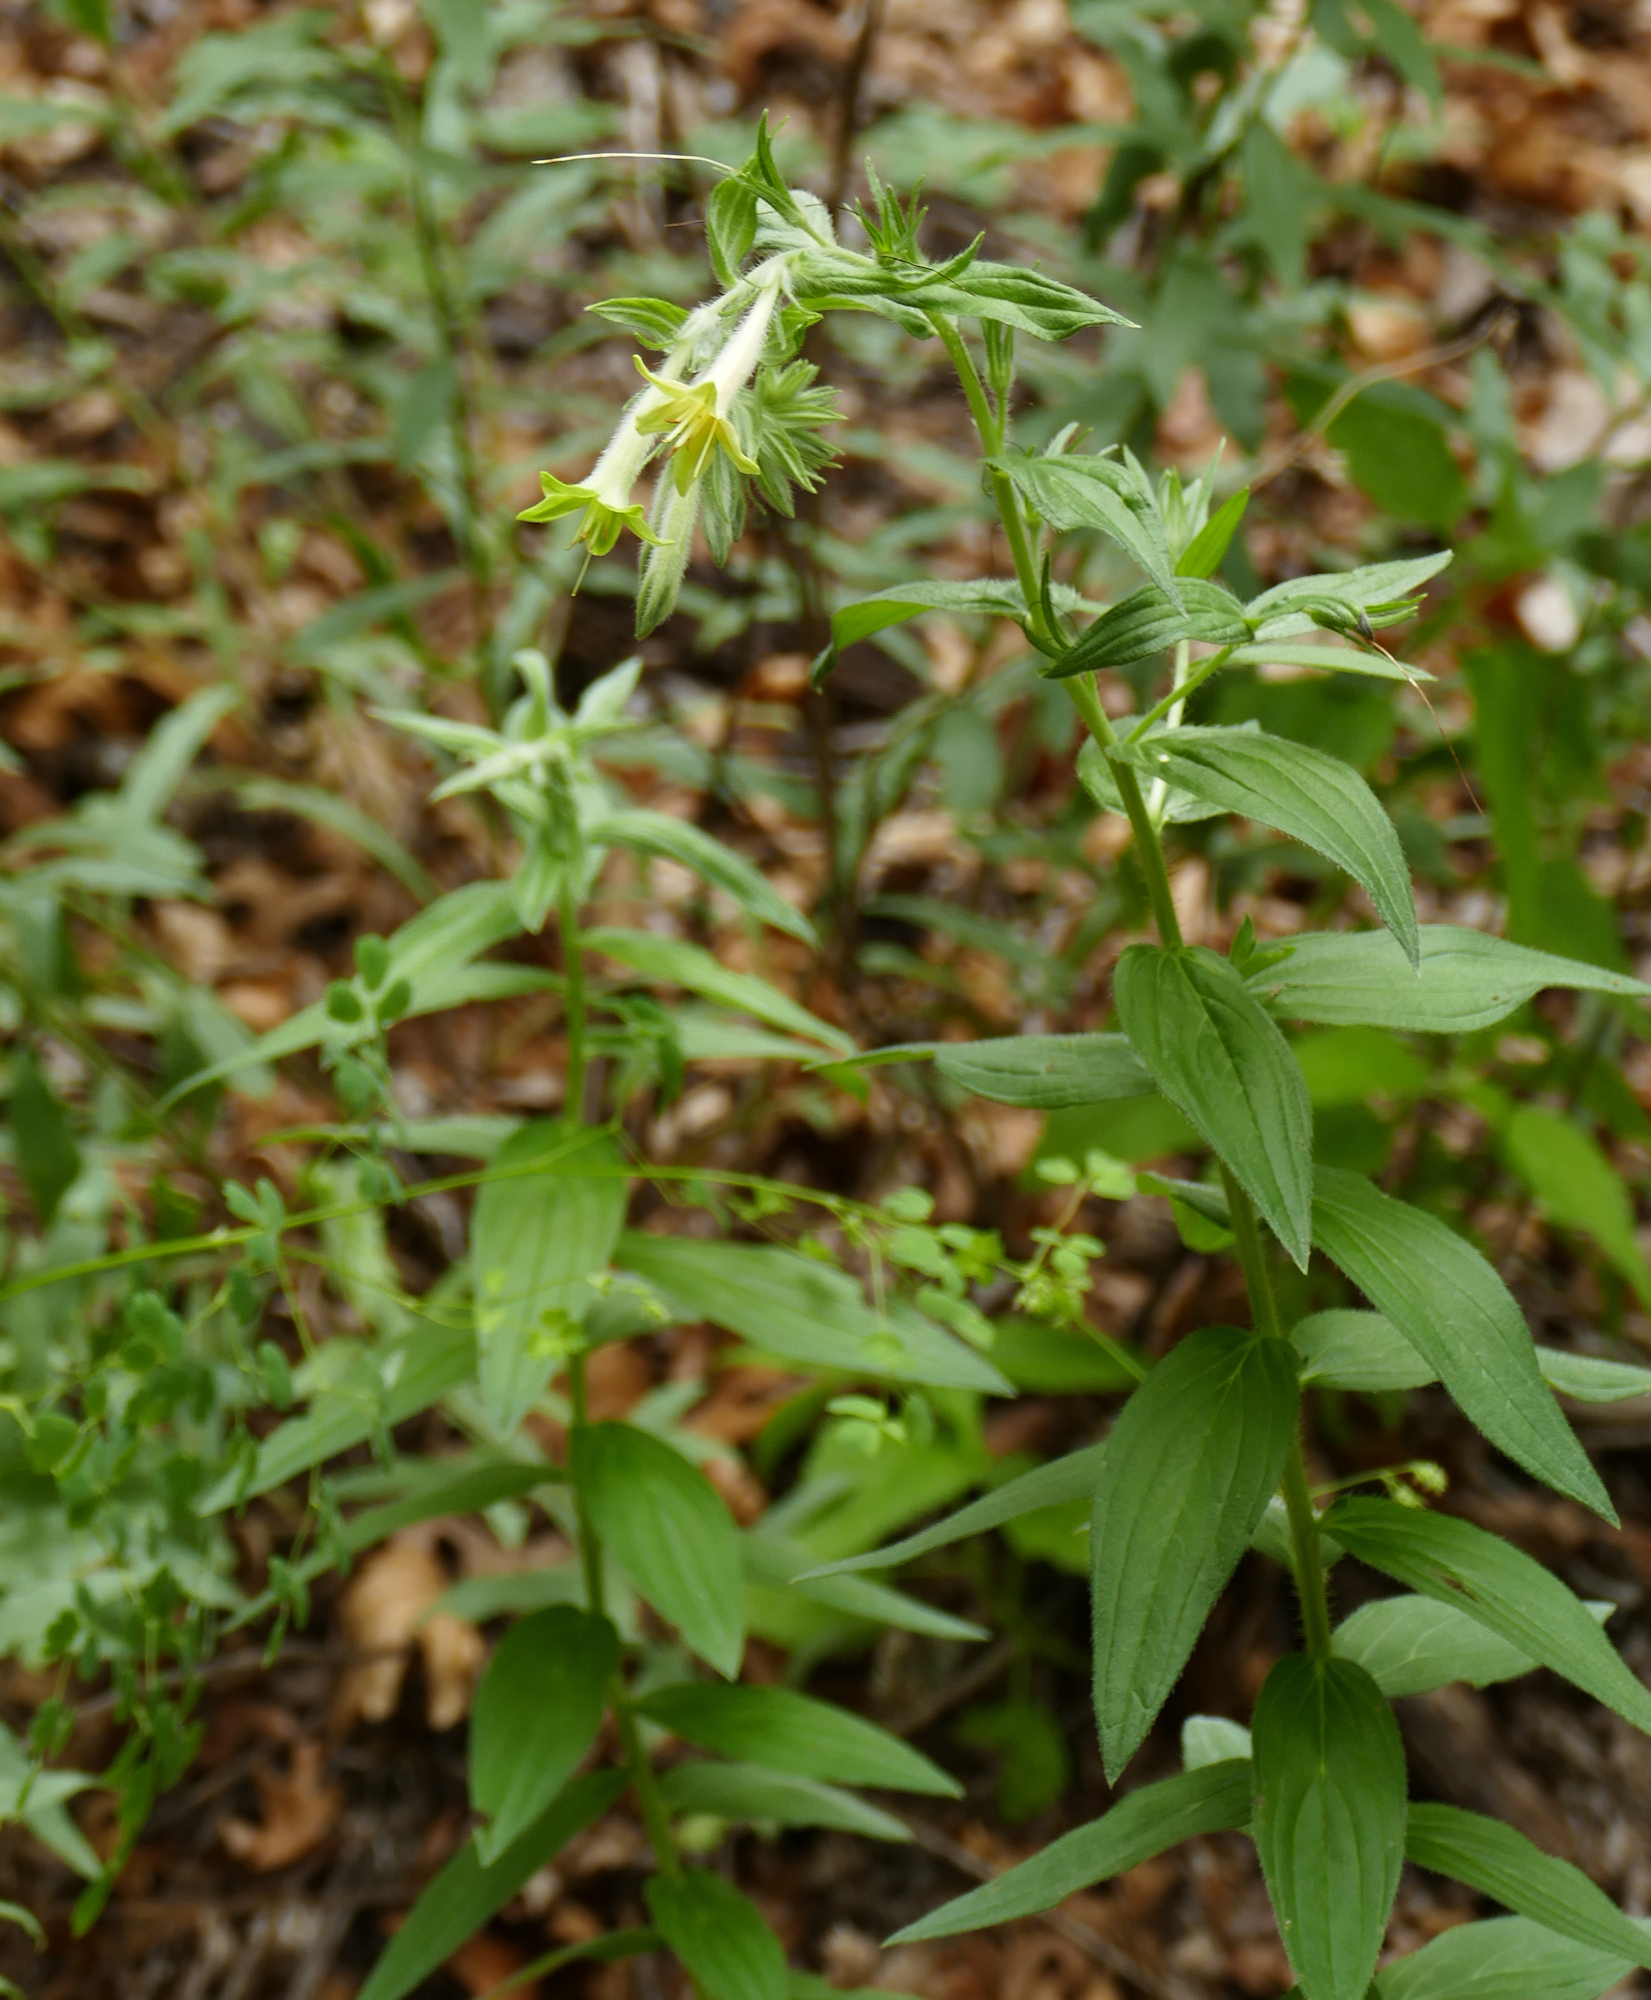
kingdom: Plantae
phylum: Tracheophyta
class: Magnoliopsida
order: Boraginales
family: Boraginaceae
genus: Lithospermum
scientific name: Lithospermum thurberi
